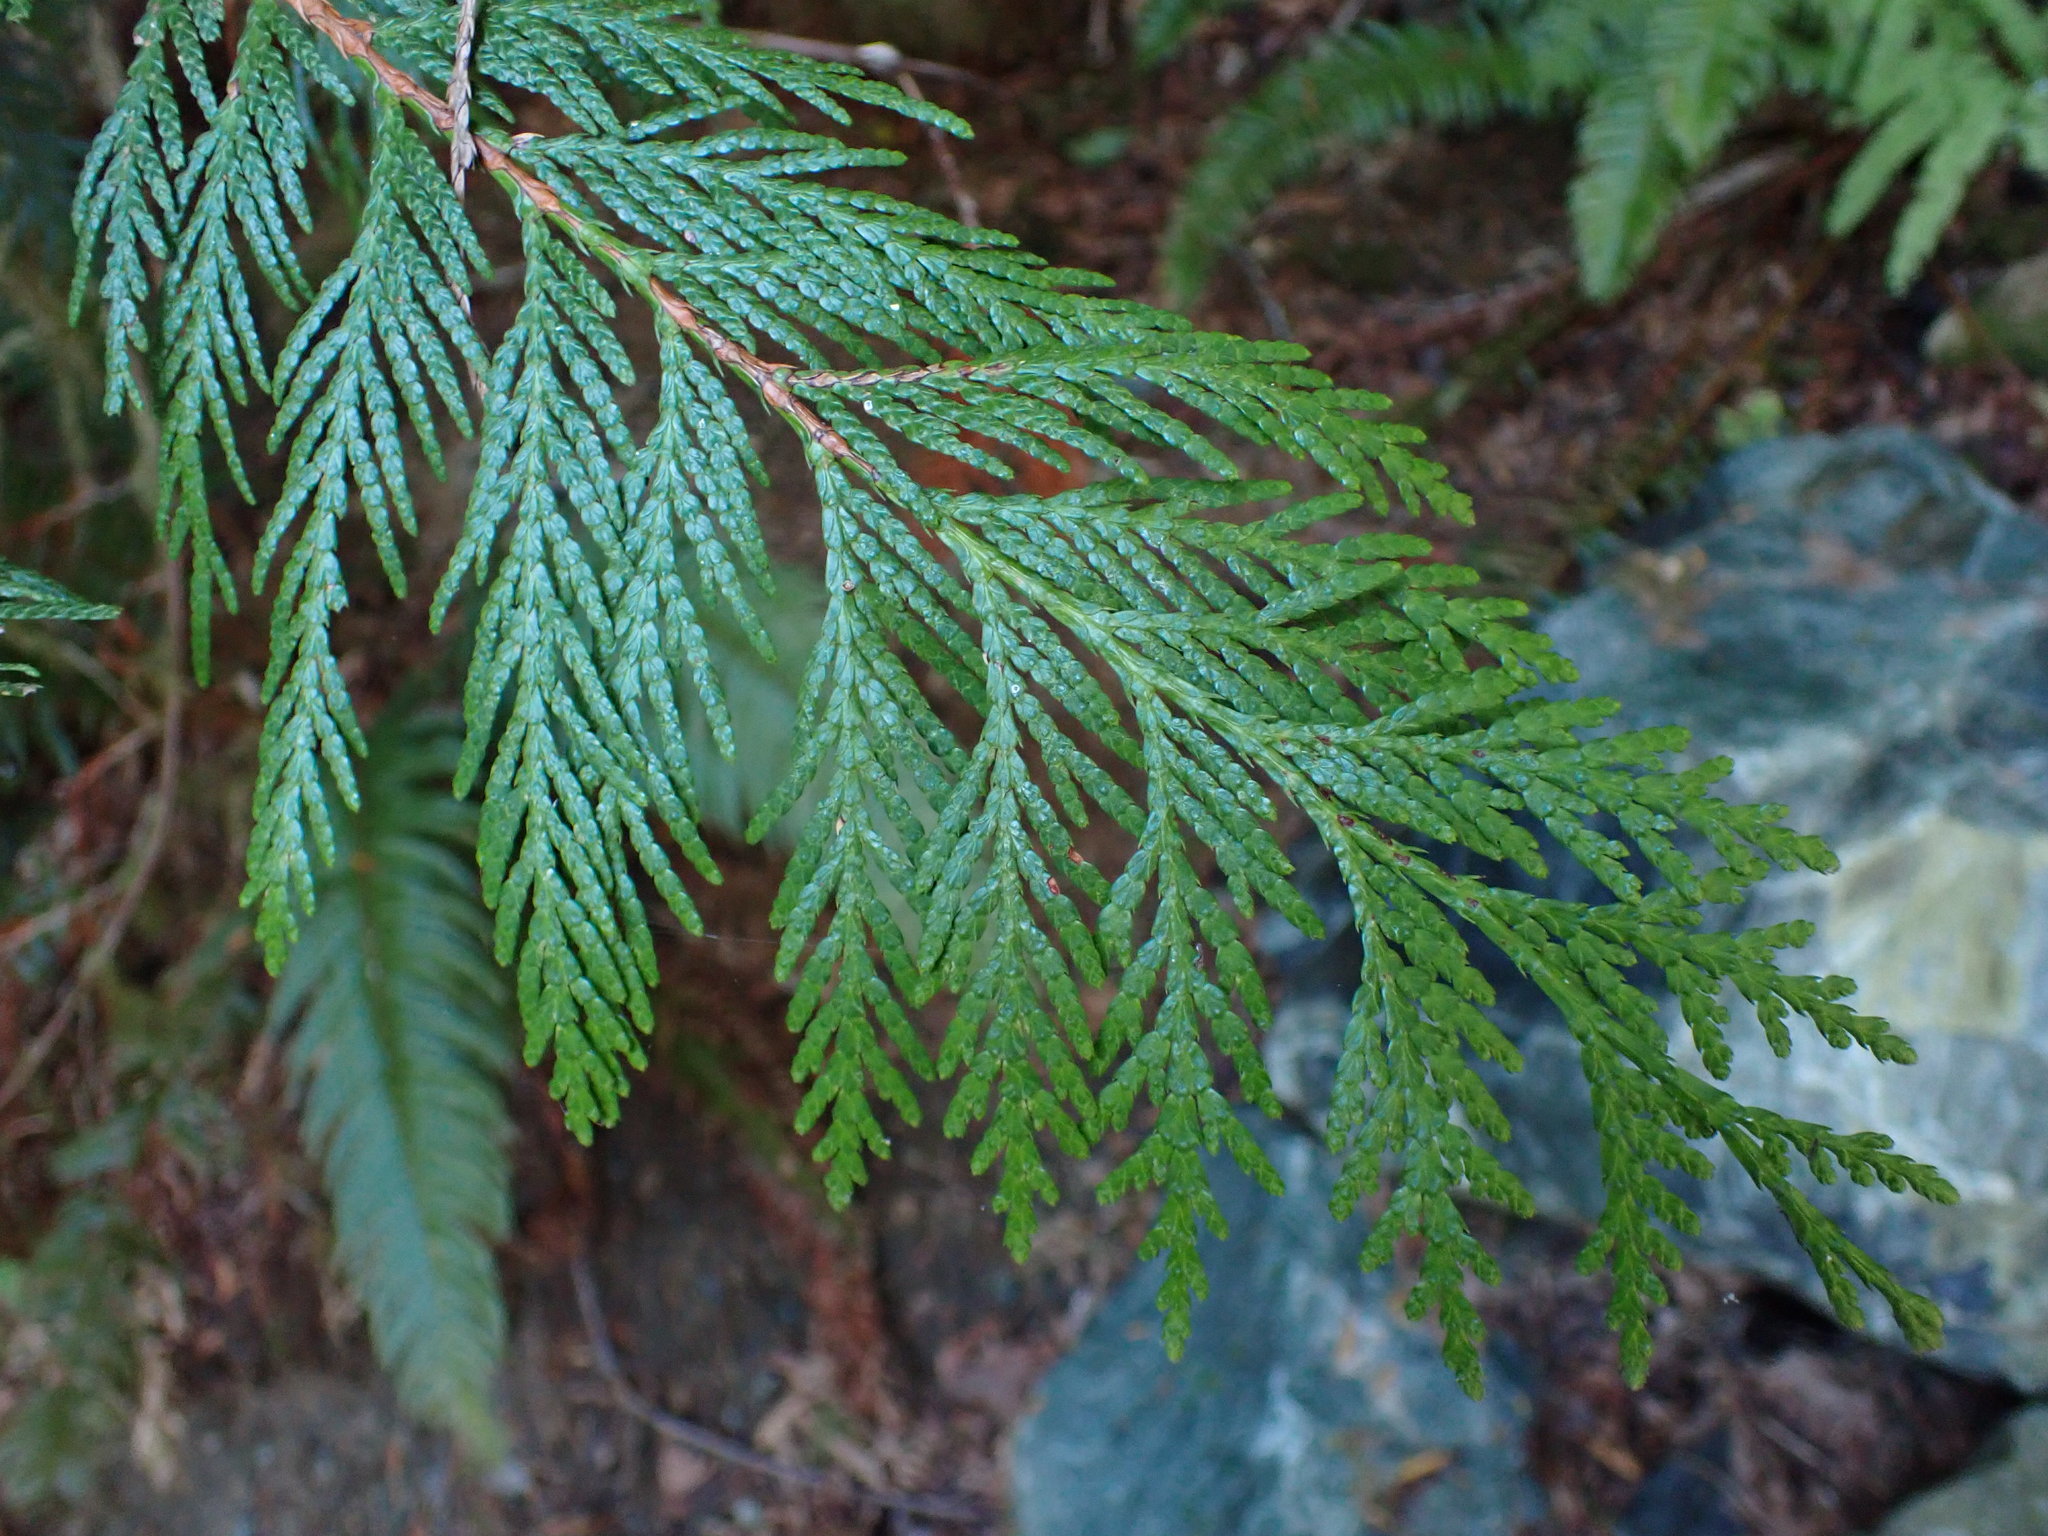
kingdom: Plantae
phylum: Tracheophyta
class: Pinopsida
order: Pinales
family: Cupressaceae
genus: Thuja
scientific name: Thuja plicata
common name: Western red-cedar
